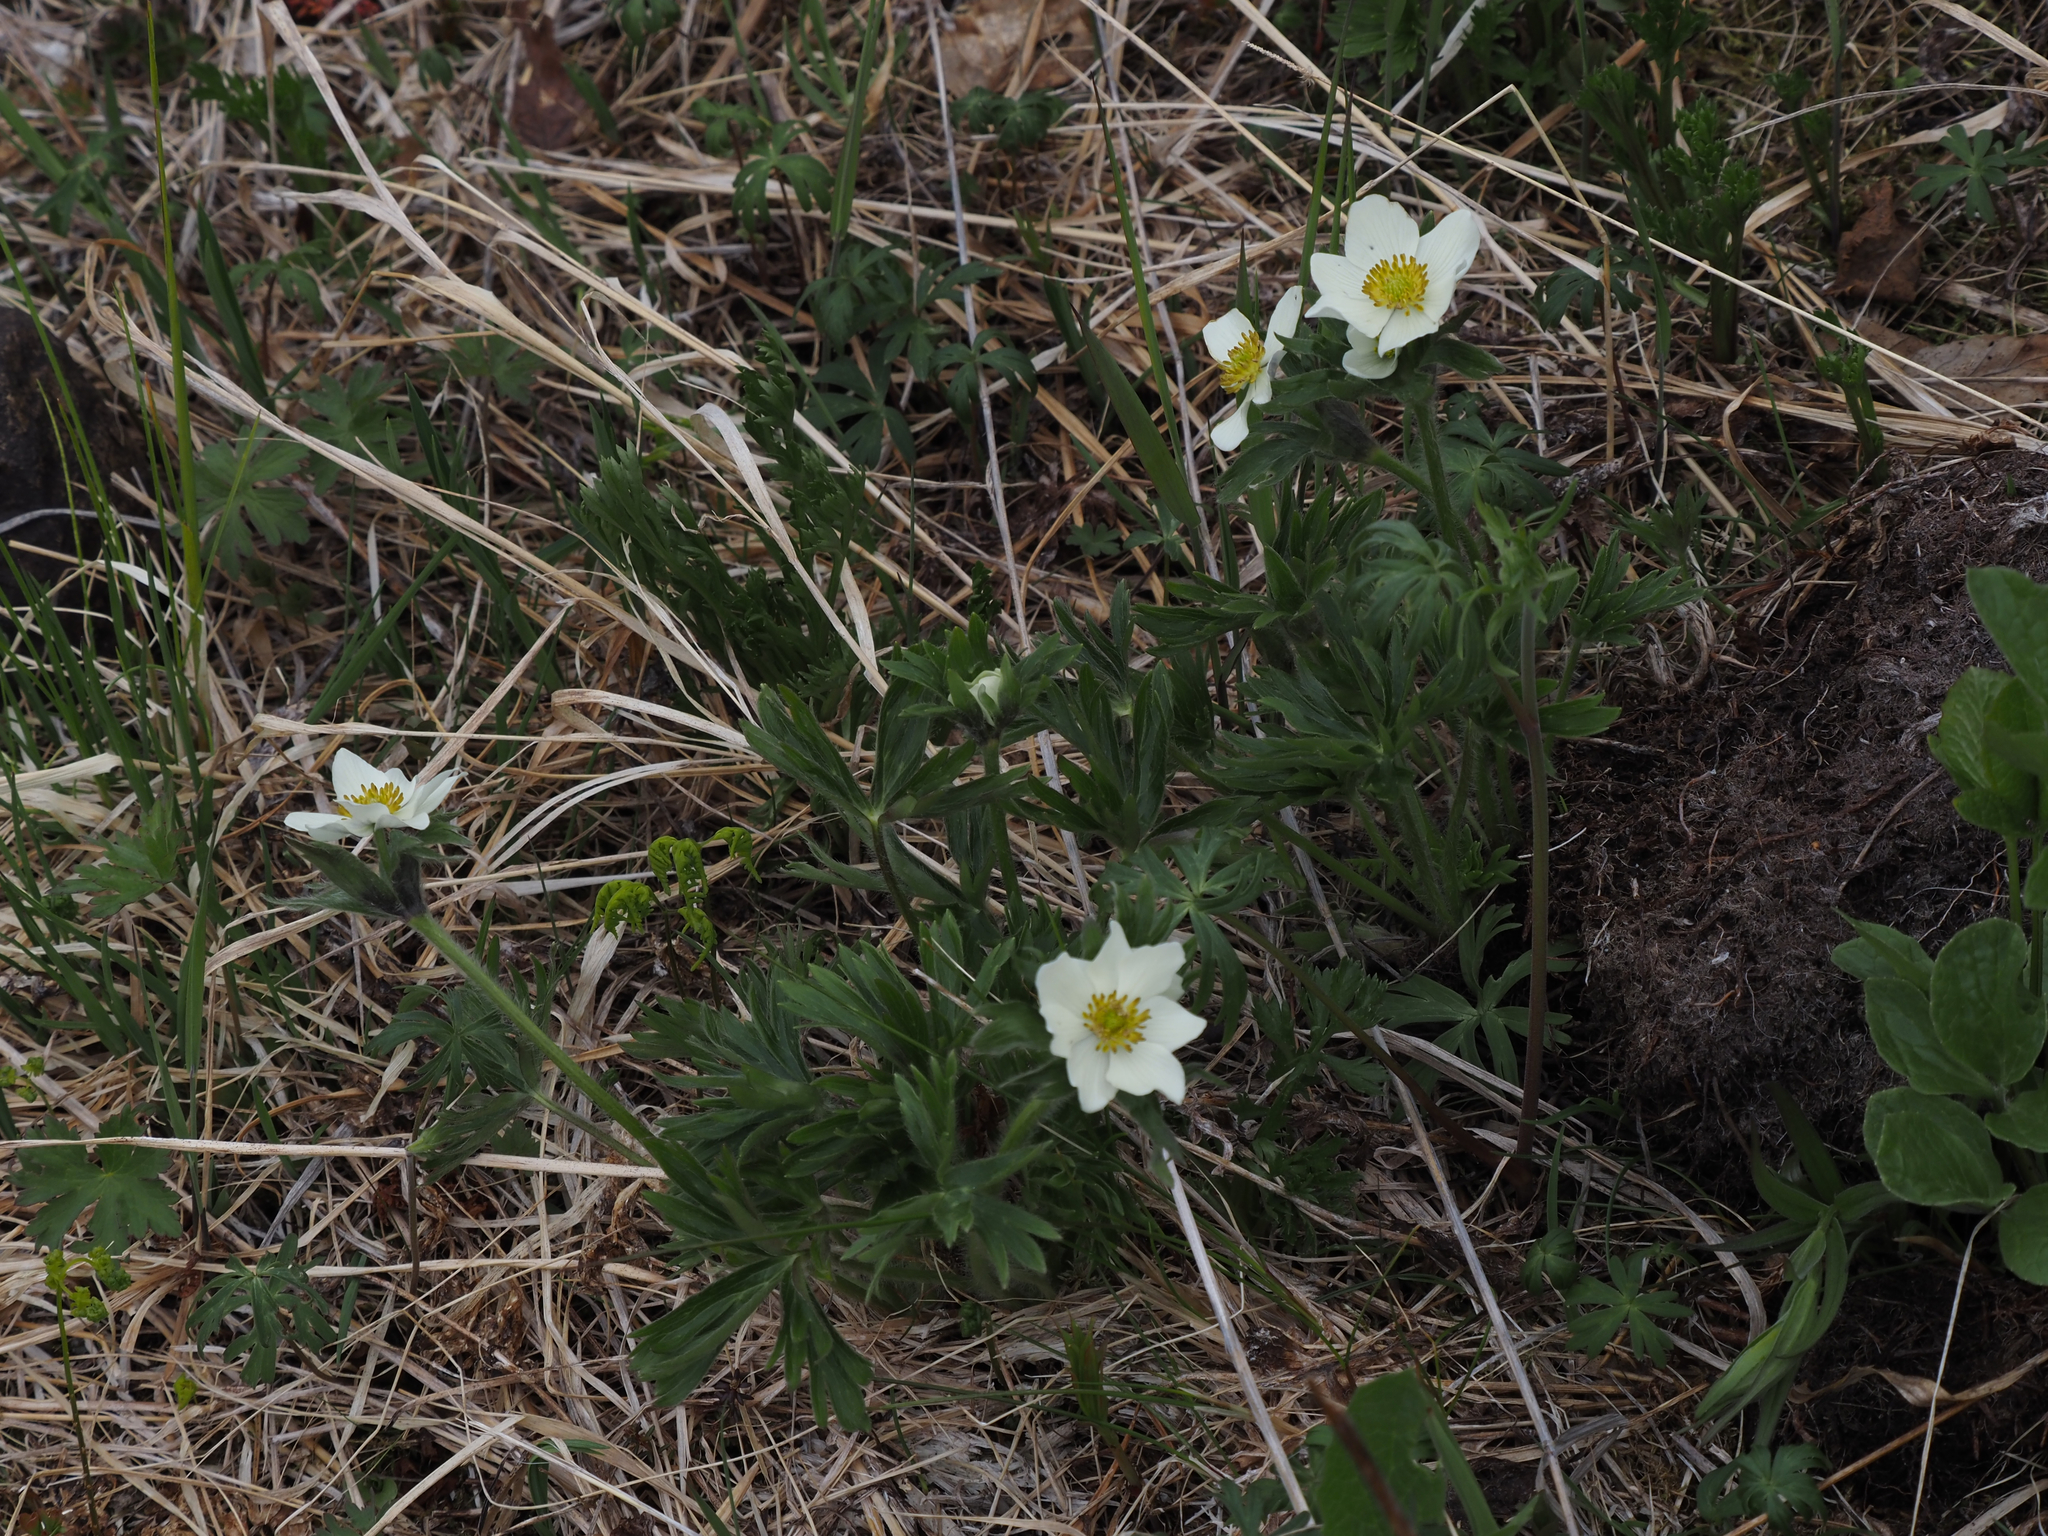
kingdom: Plantae
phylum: Tracheophyta
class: Magnoliopsida
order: Ranunculales
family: Ranunculaceae
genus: Anemonastrum
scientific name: Anemonastrum narcissiflorum
